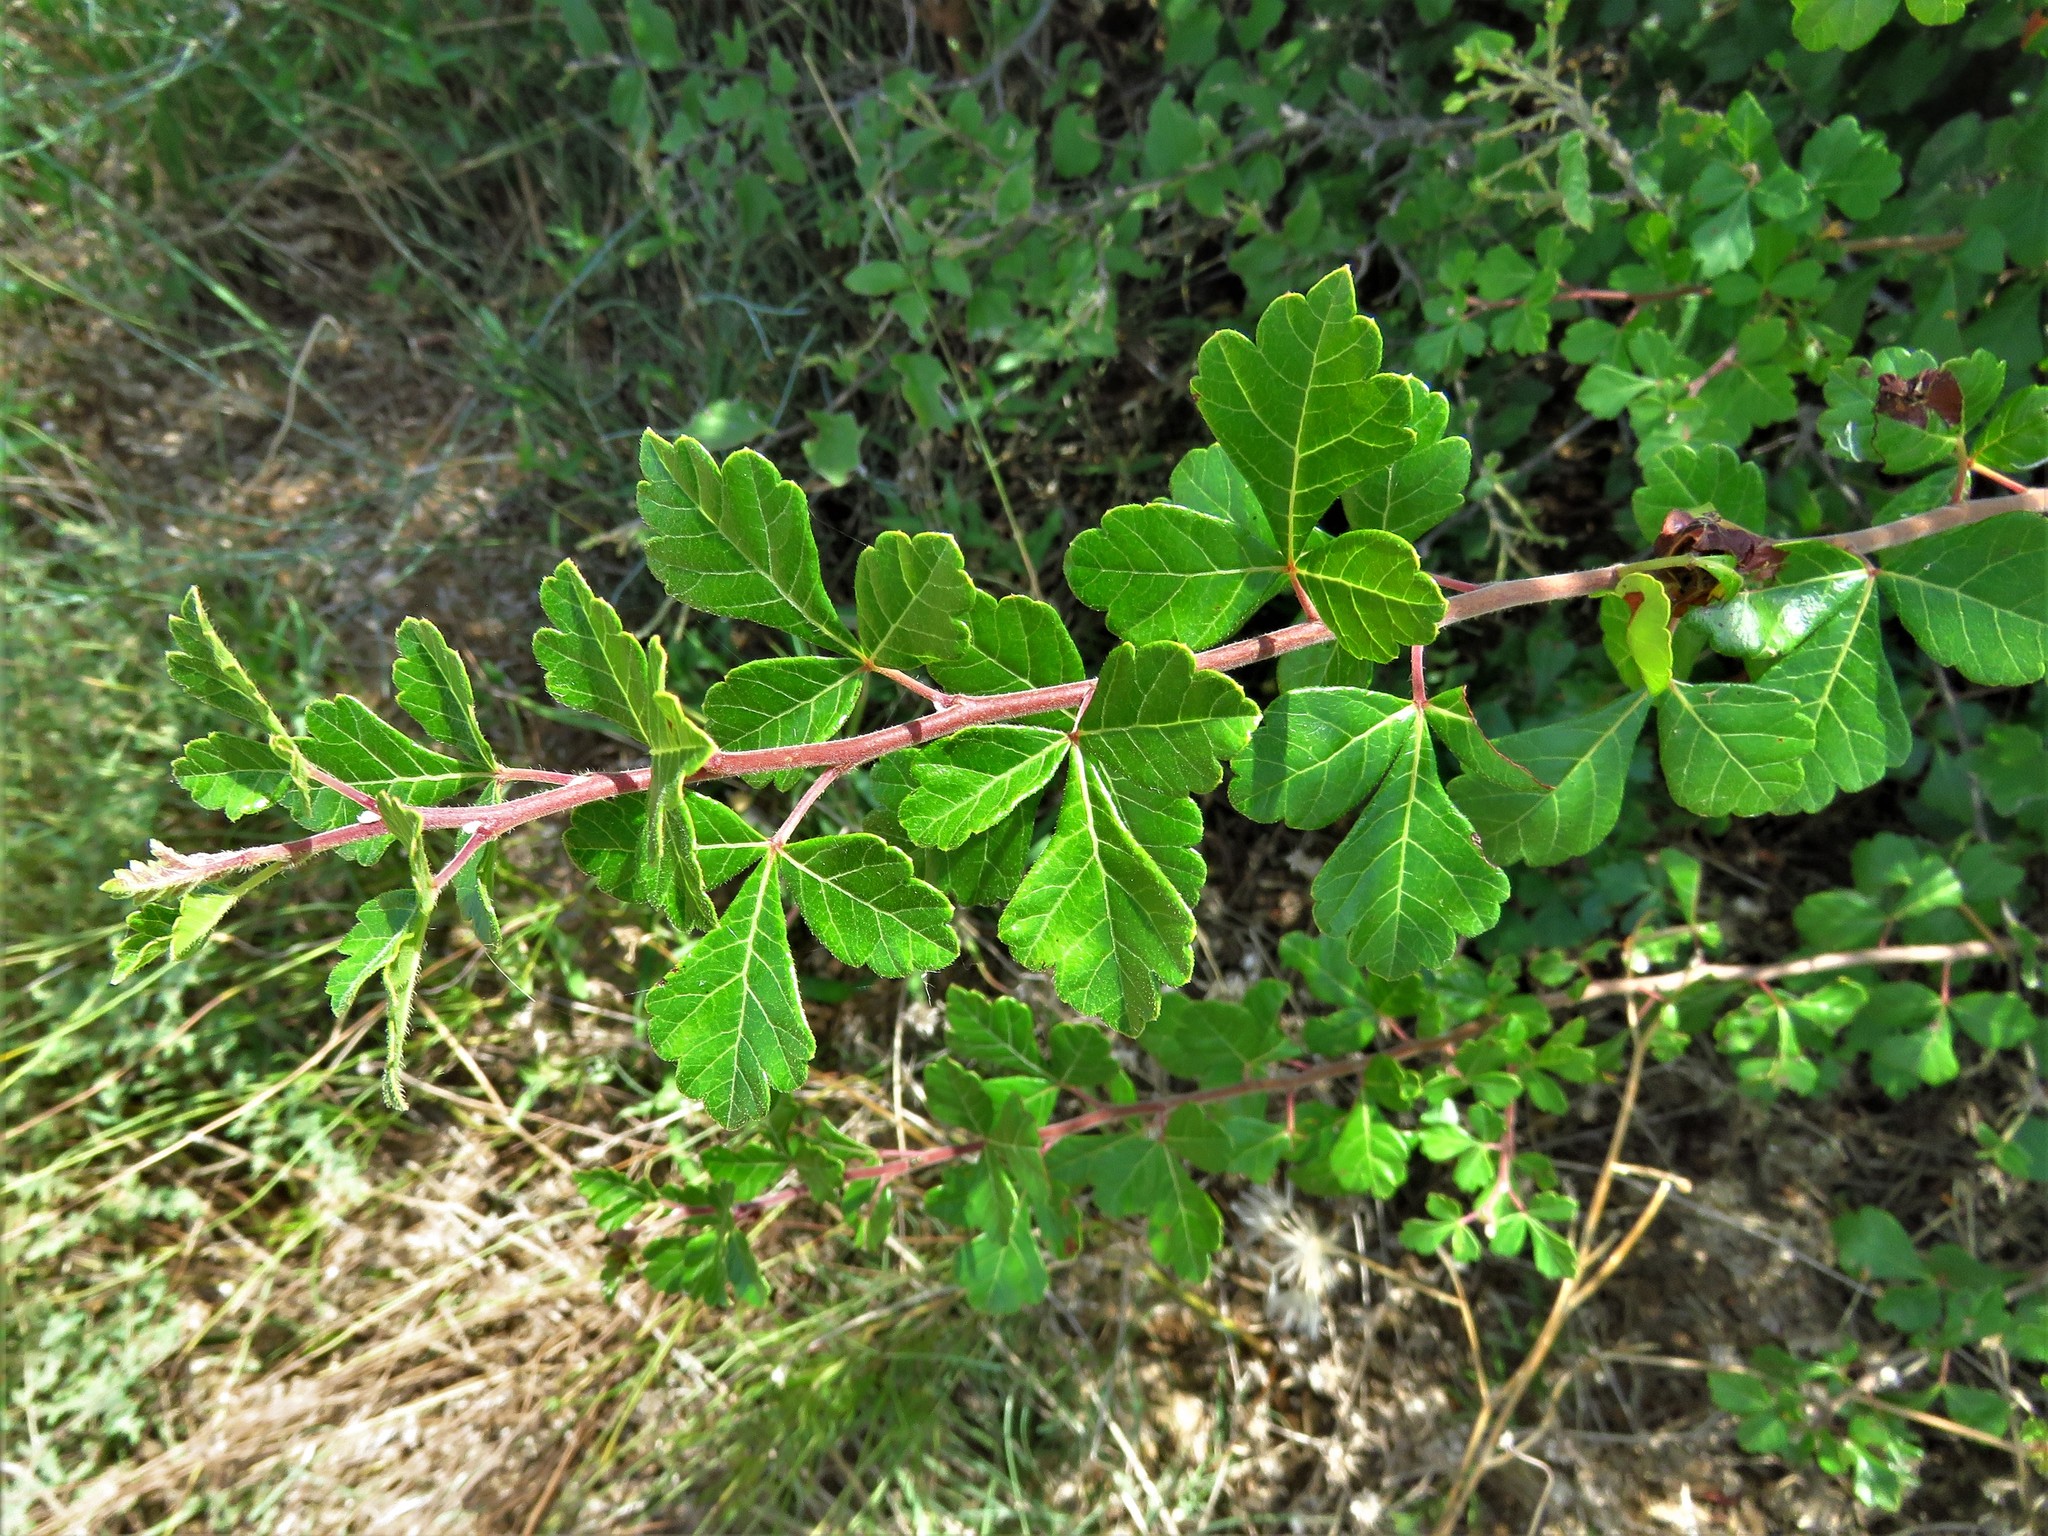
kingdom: Plantae
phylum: Tracheophyta
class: Magnoliopsida
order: Sapindales
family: Anacardiaceae
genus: Rhus
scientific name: Rhus aromatica
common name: Aromatic sumac
